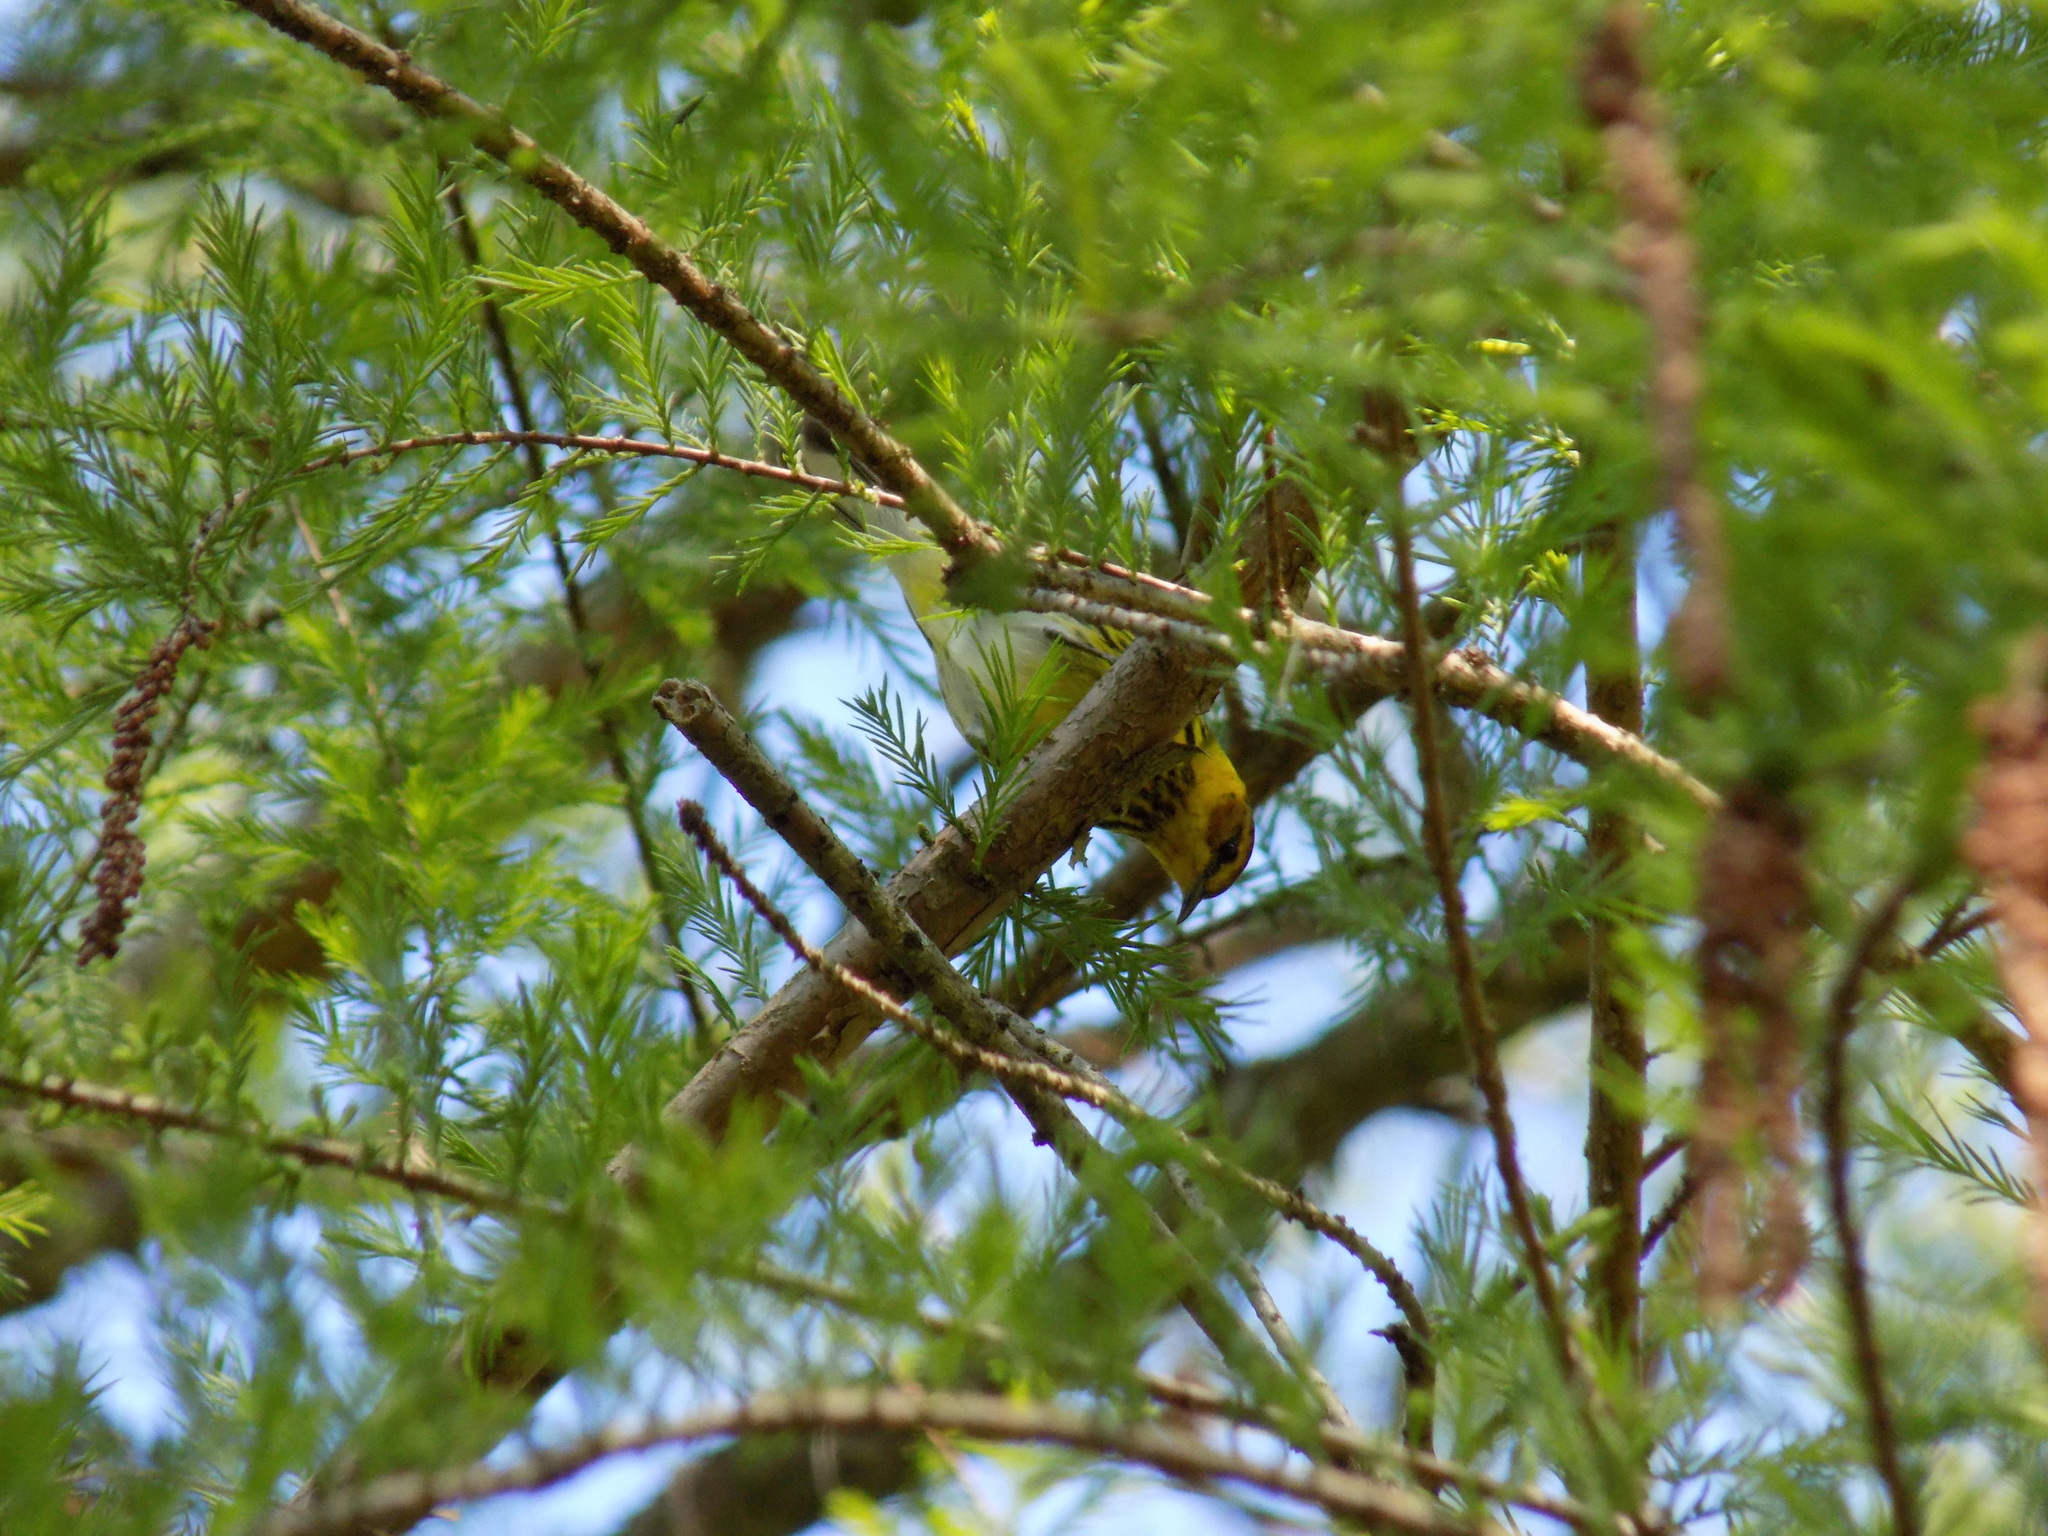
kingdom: Animalia
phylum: Chordata
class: Aves
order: Passeriformes
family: Parulidae
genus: Setophaga
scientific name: Setophaga tigrina
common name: Cape may warbler
